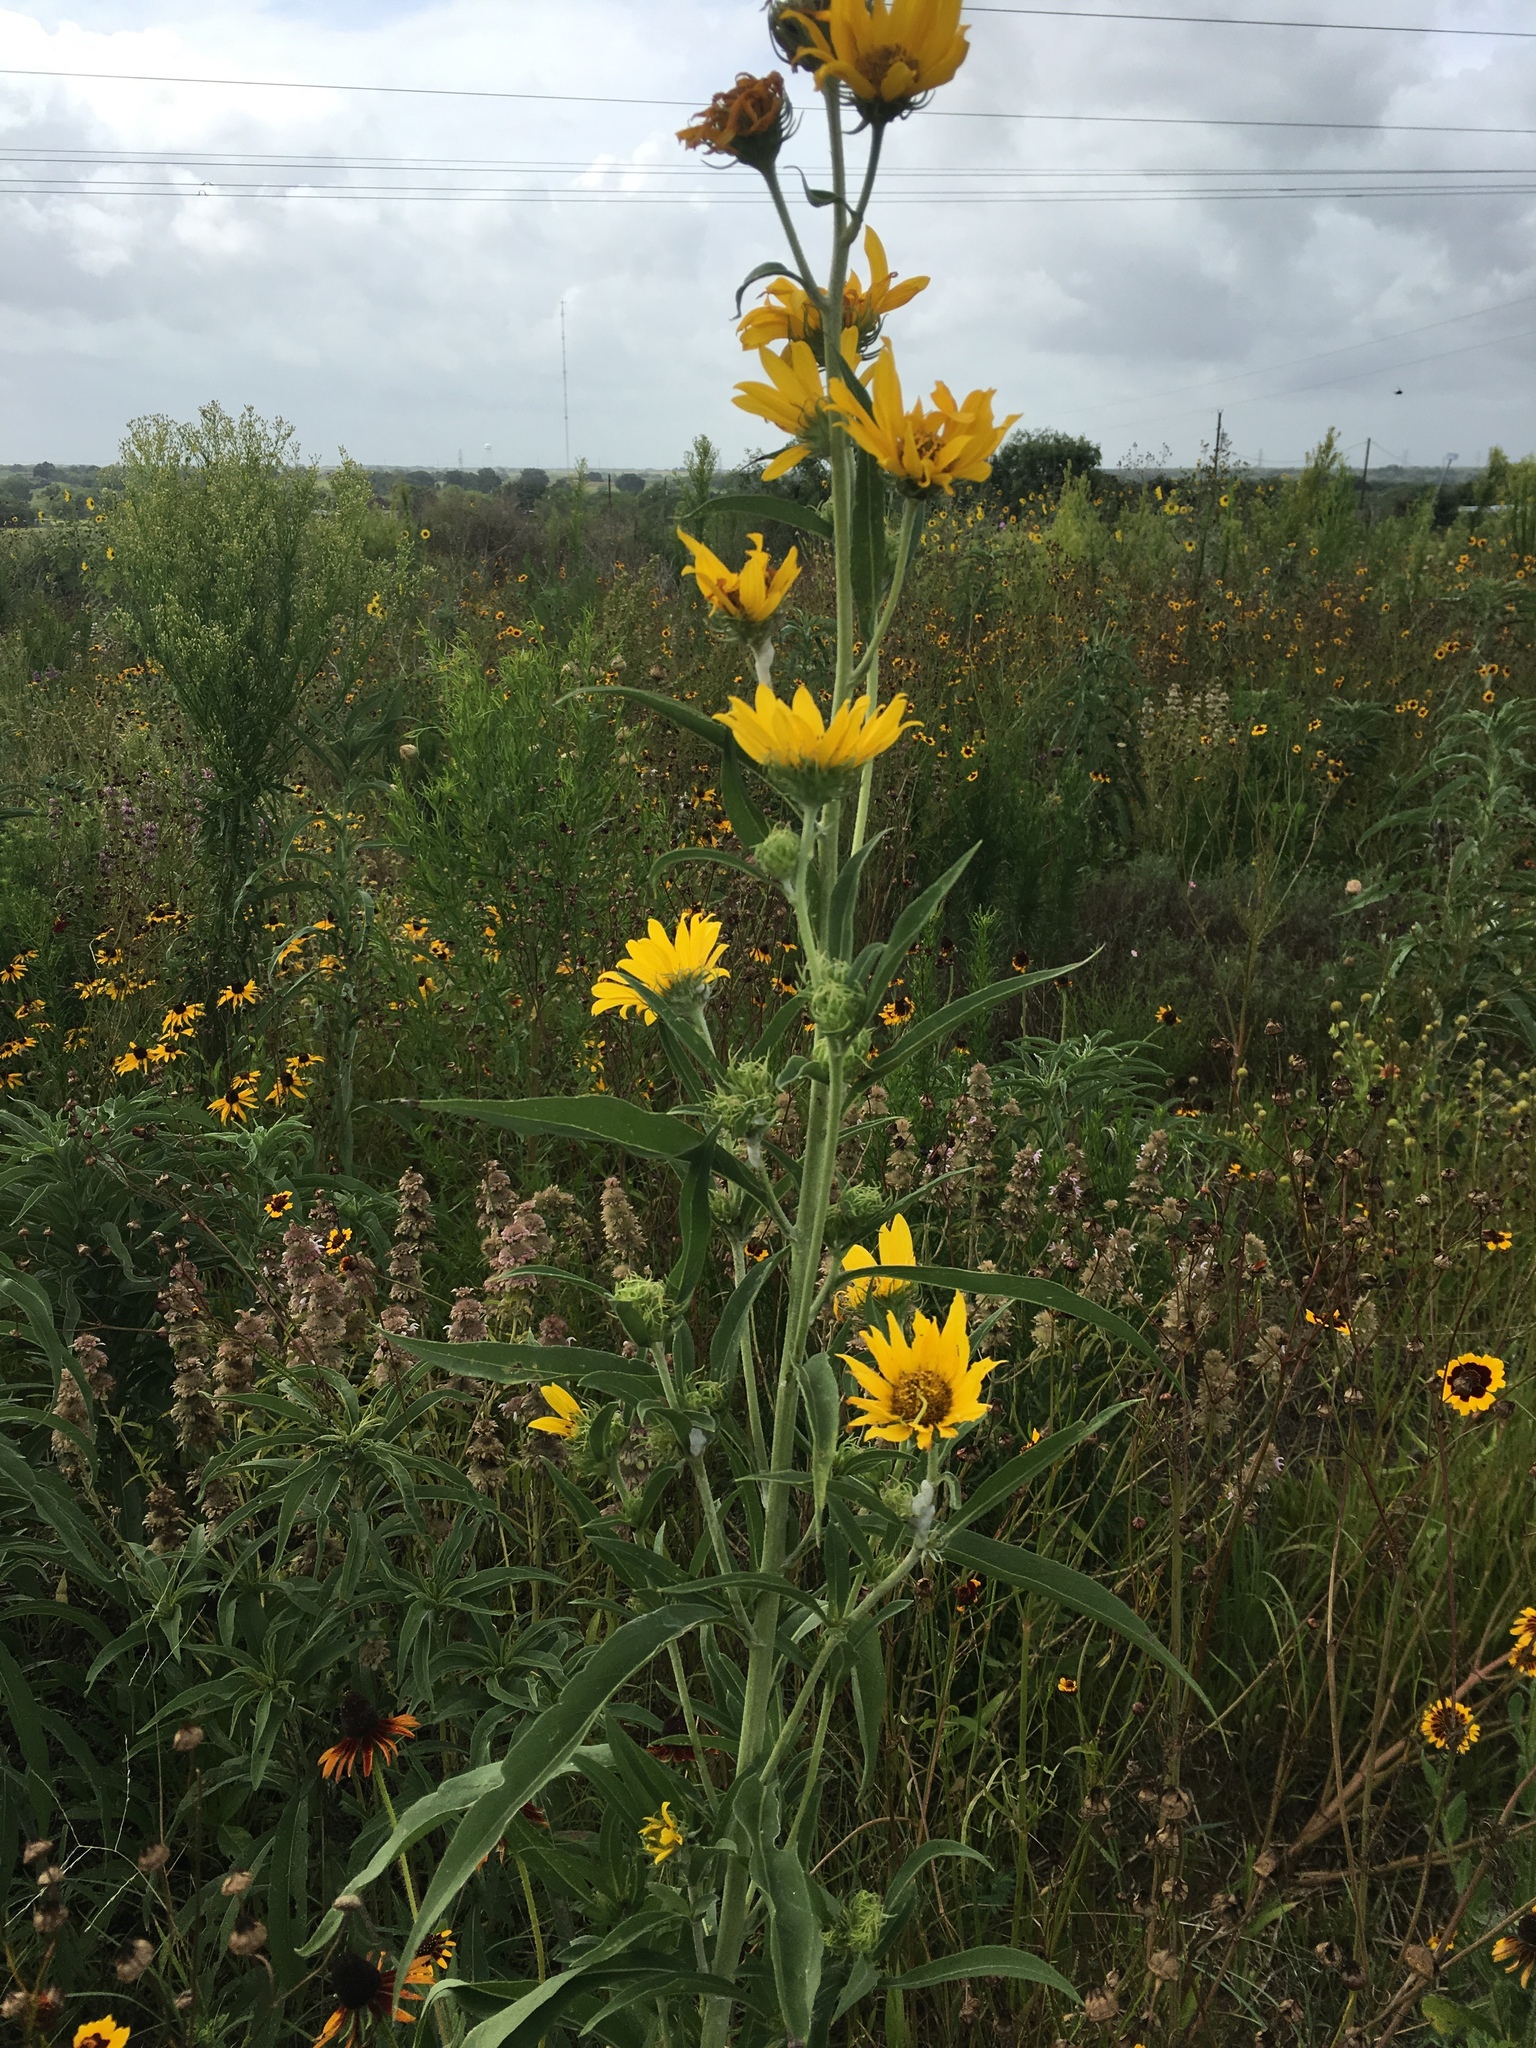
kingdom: Plantae
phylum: Tracheophyta
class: Magnoliopsida
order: Asterales
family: Asteraceae
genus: Helianthus
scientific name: Helianthus maximiliani
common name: Maximilian's sunflower
